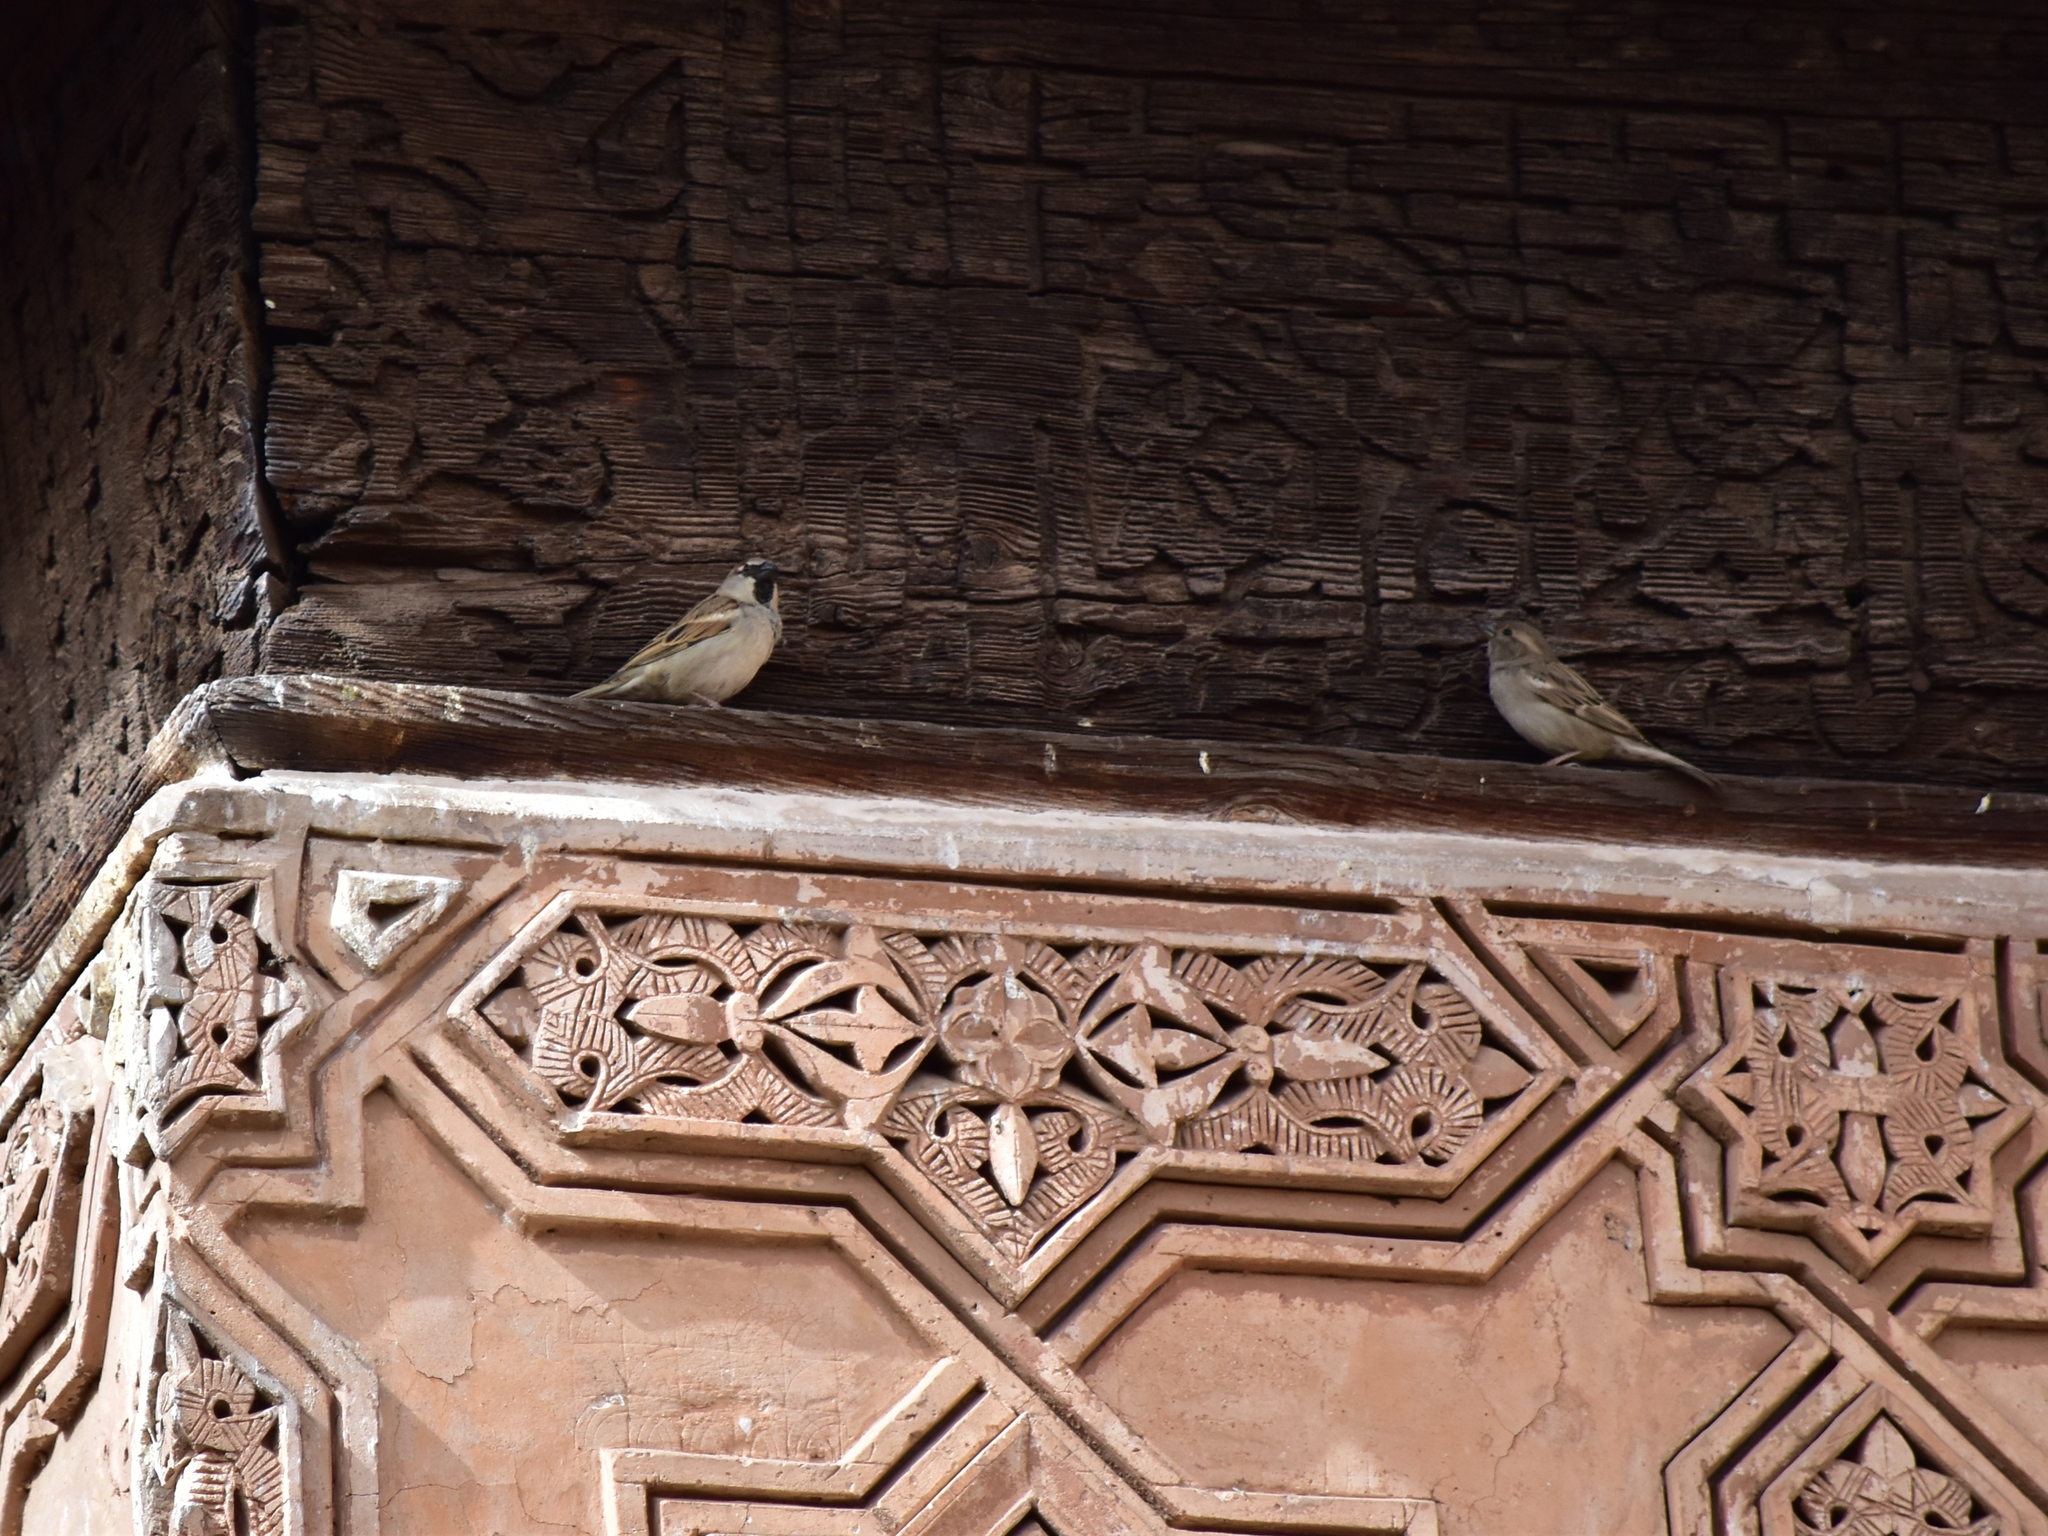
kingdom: Animalia
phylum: Chordata
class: Aves
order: Passeriformes
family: Passeridae
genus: Passer
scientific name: Passer domesticus
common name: House sparrow
